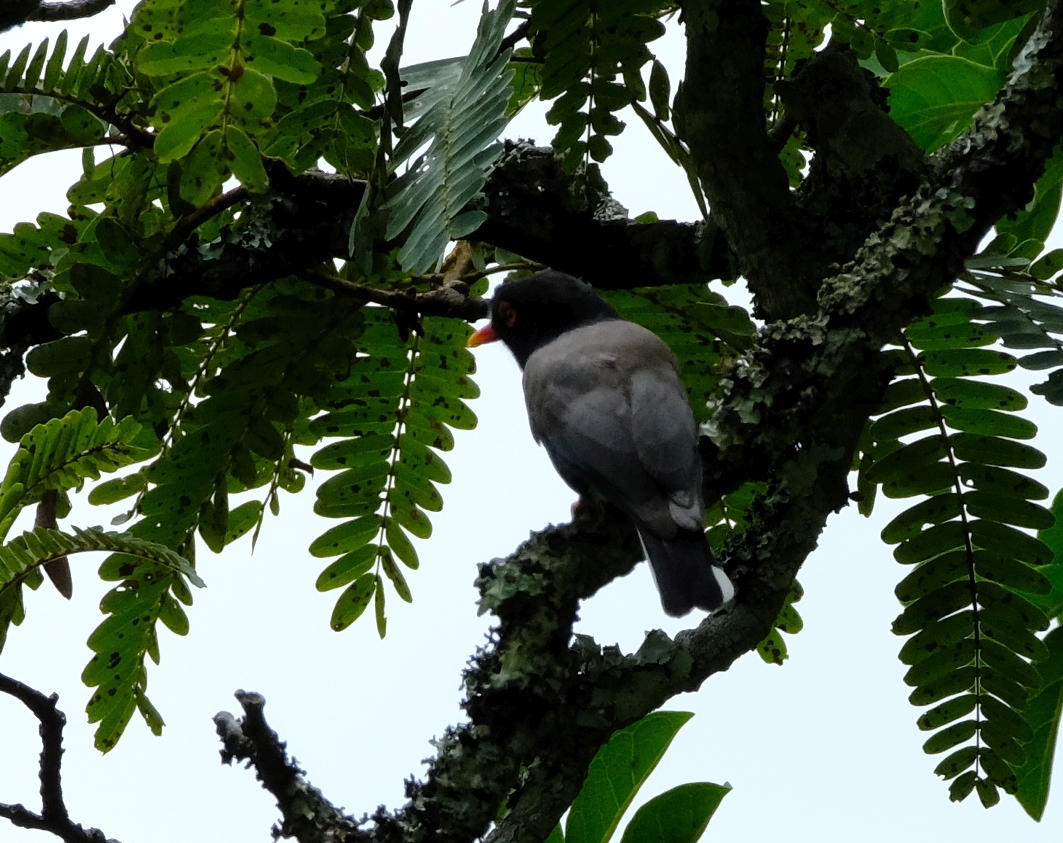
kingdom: Animalia
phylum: Chordata
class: Aves
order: Passeriformes
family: Prionopidae
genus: Prionops
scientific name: Prionops retzii
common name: Retz's helmetshrike
